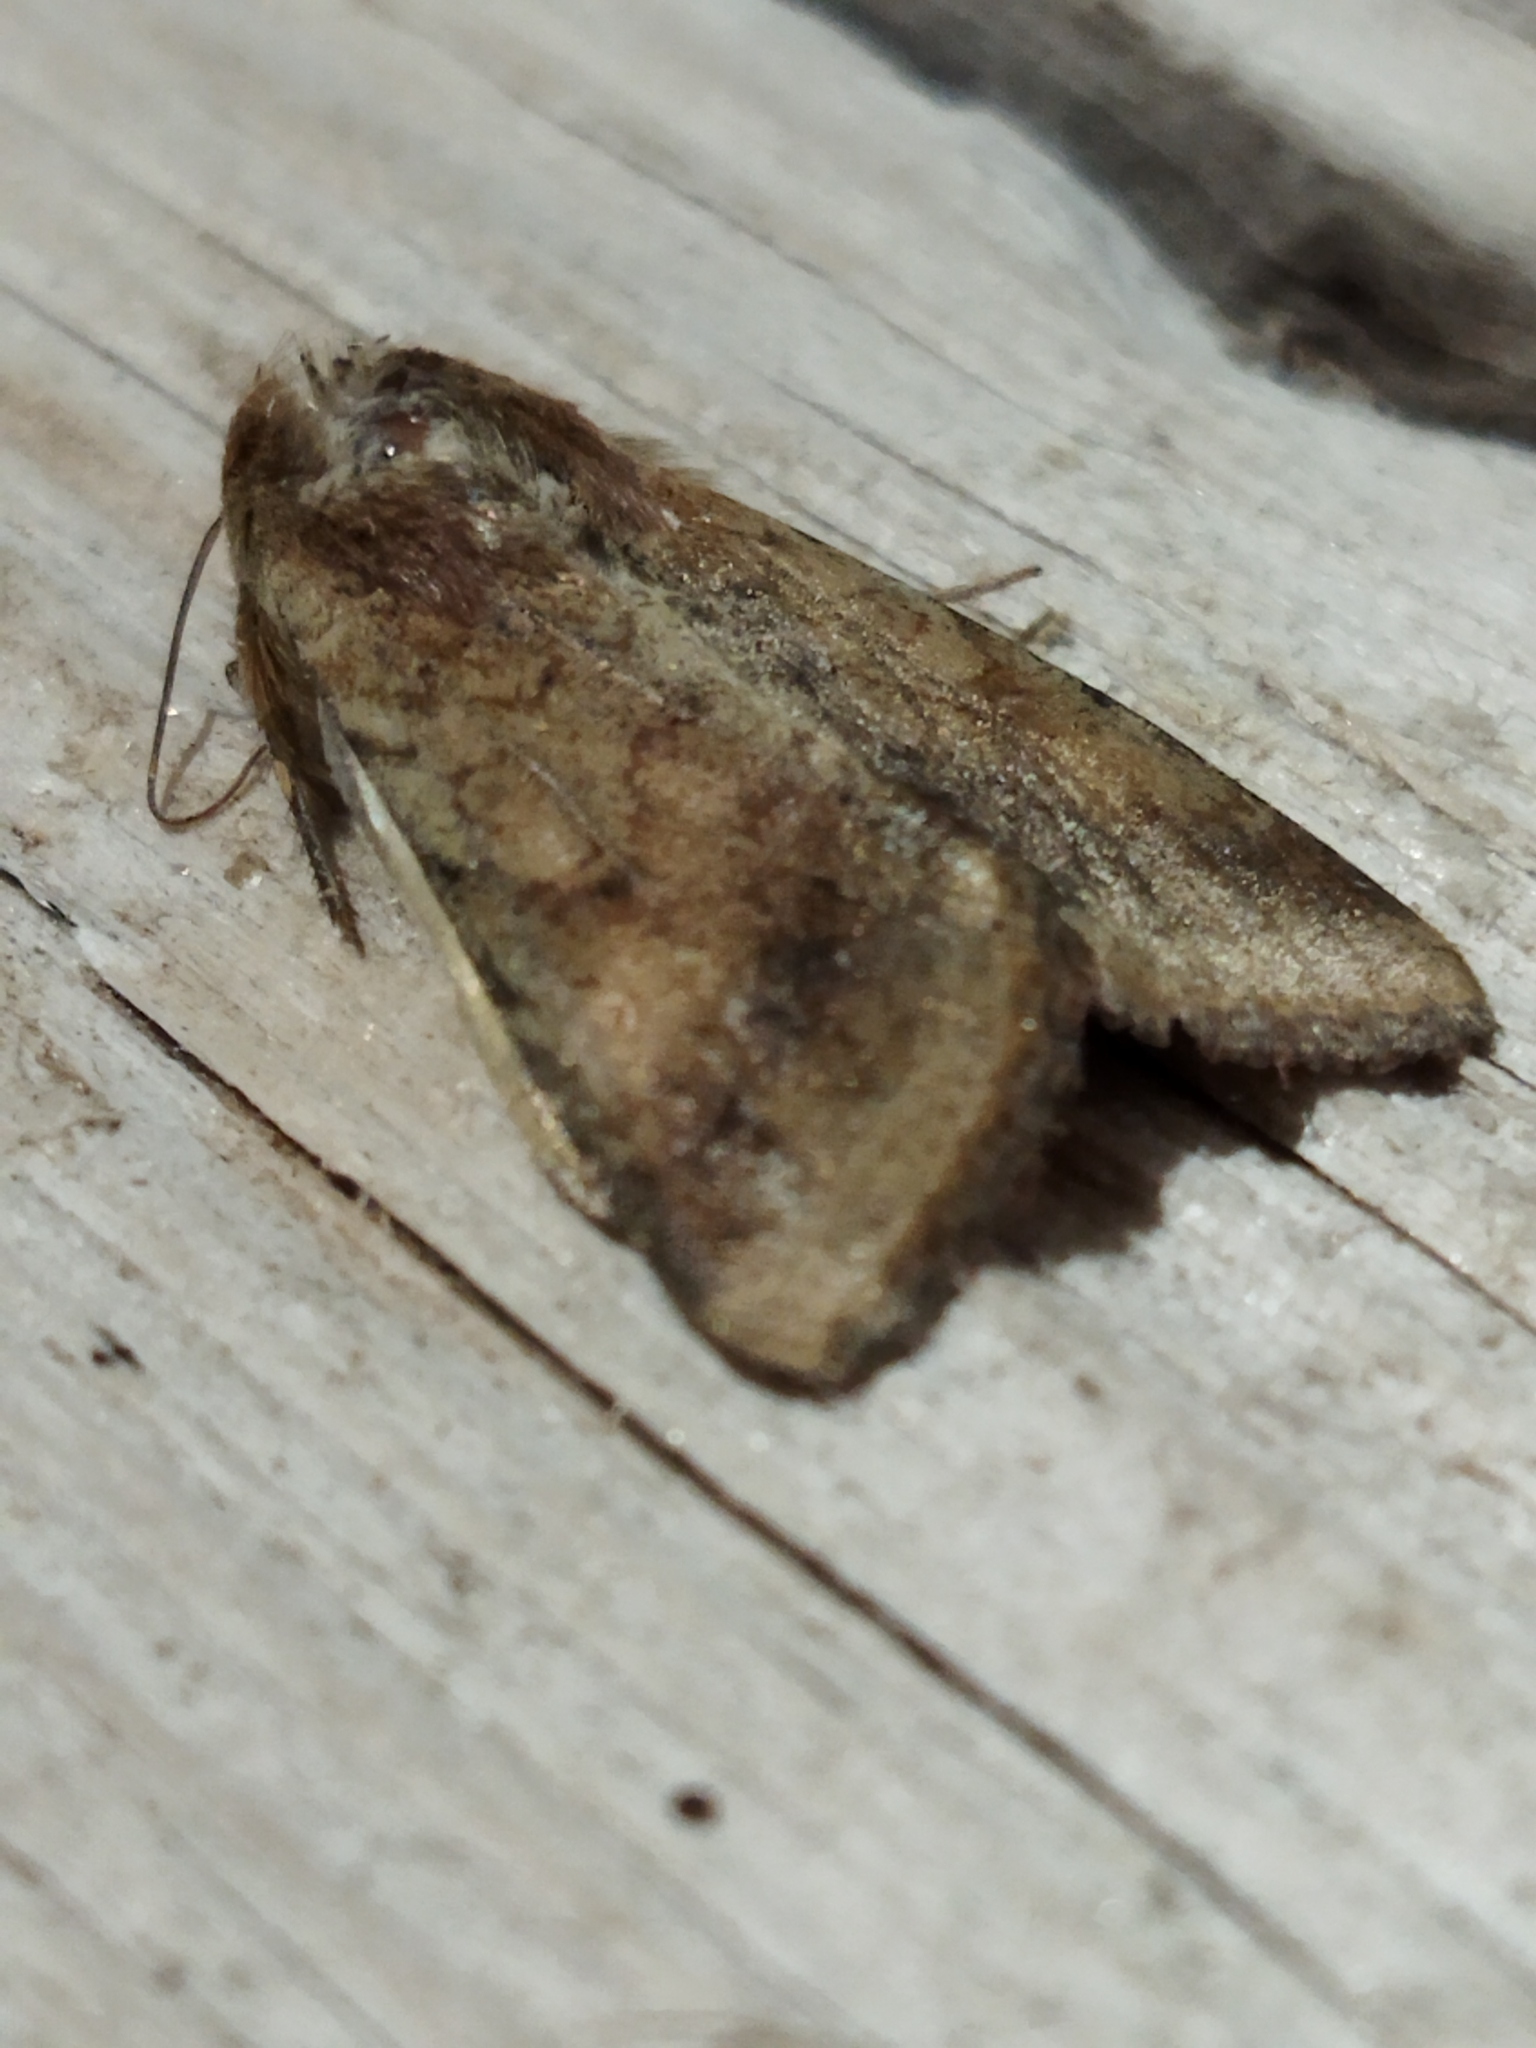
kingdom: Animalia
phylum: Arthropoda
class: Insecta
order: Lepidoptera
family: Noctuidae
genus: Helicoverpa
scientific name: Helicoverpa armigera
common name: Cotton bollworm
